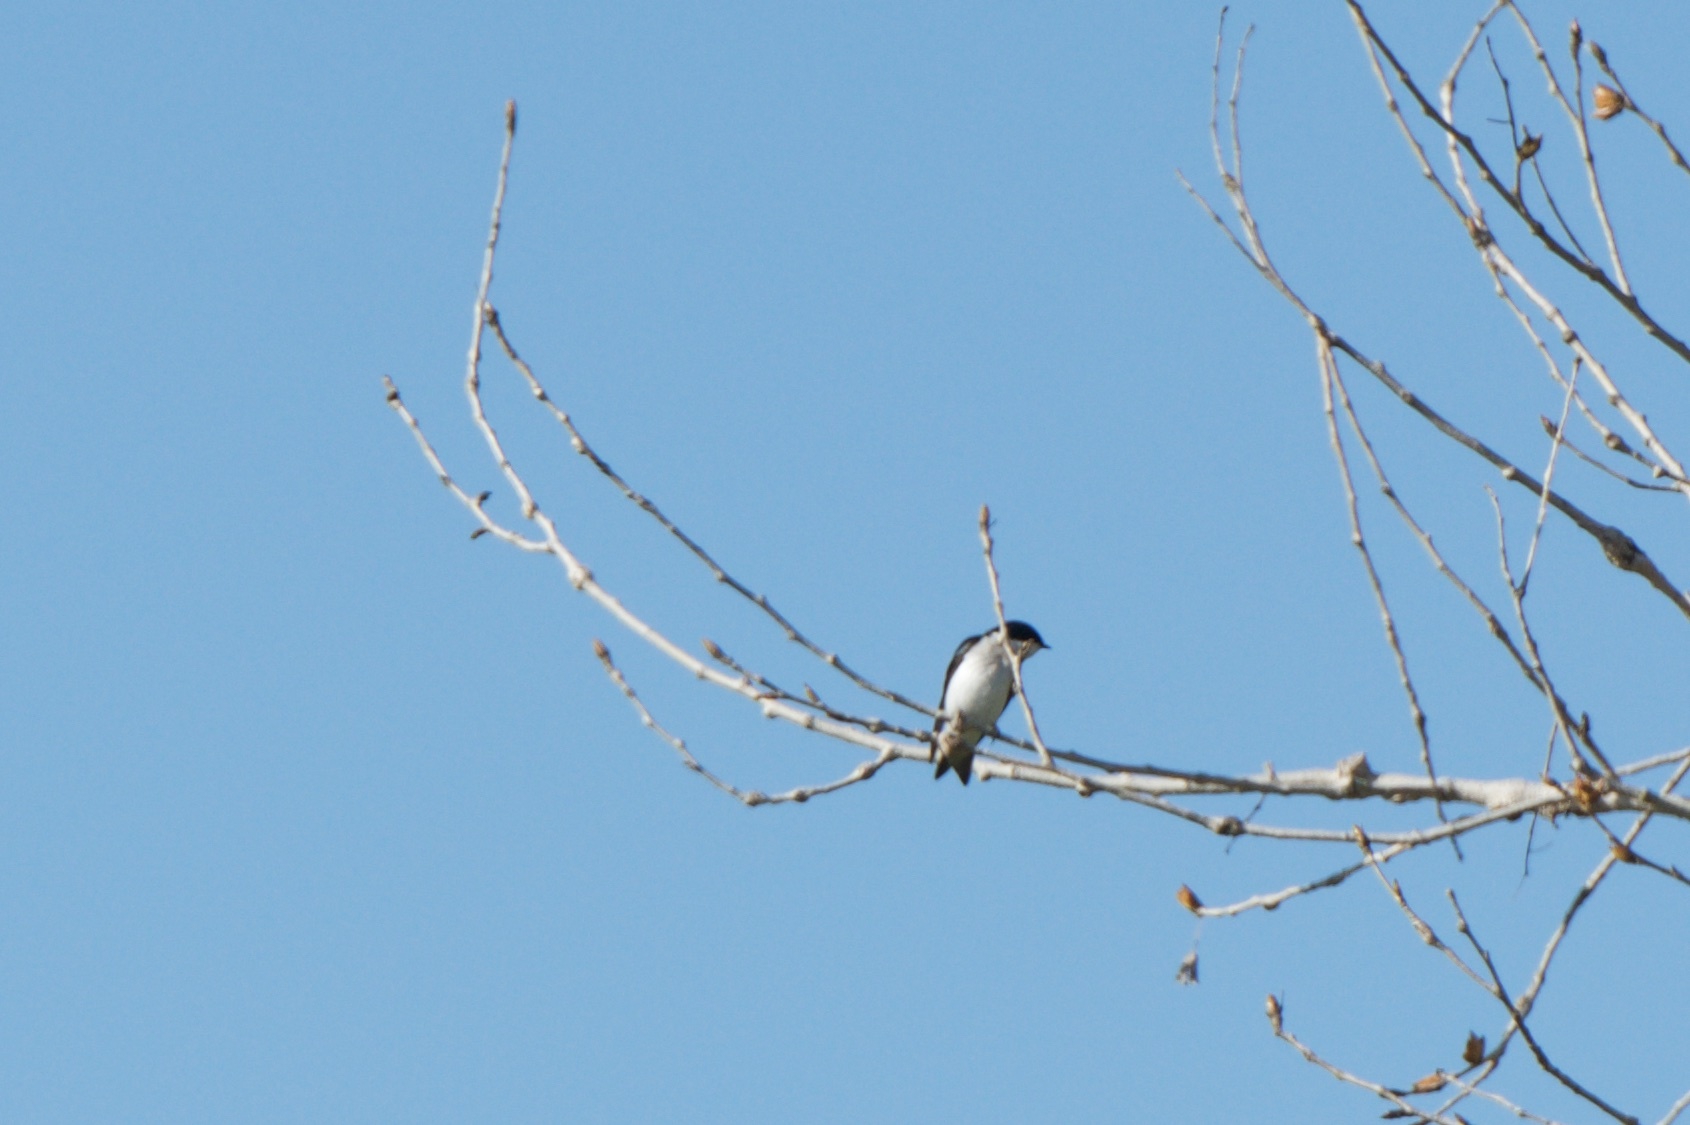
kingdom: Animalia
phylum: Chordata
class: Aves
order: Passeriformes
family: Hirundinidae
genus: Tachycineta
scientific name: Tachycineta bicolor
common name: Tree swallow
